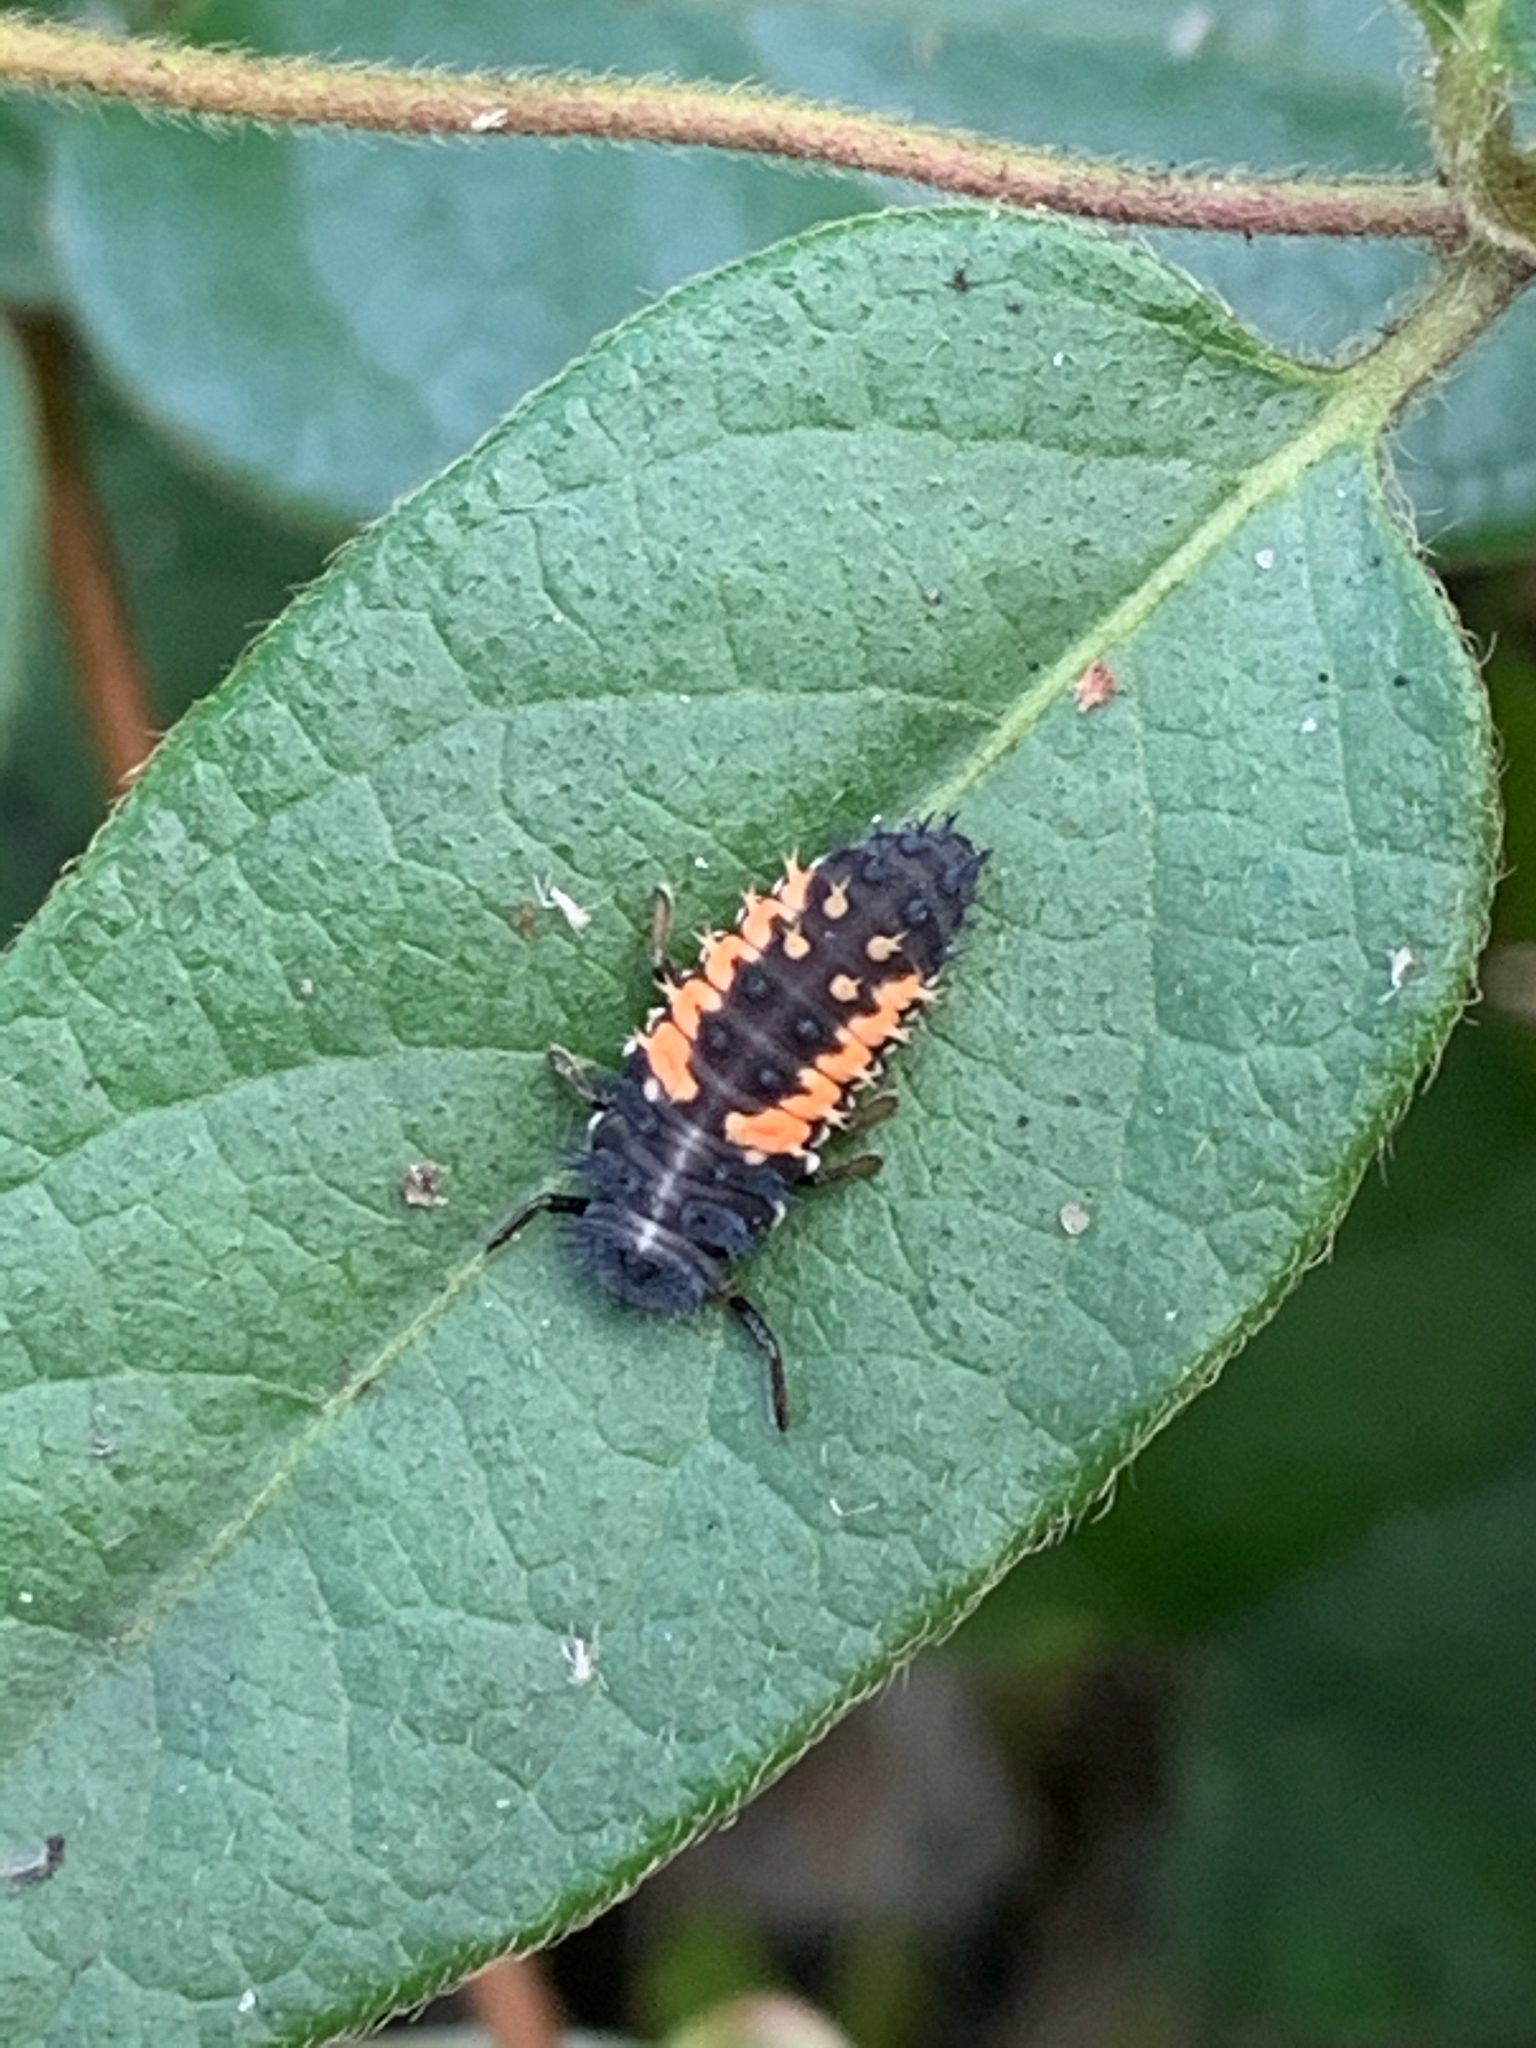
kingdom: Animalia
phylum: Arthropoda
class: Insecta
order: Coleoptera
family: Coccinellidae
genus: Harmonia
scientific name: Harmonia axyridis
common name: Harlequin ladybird
